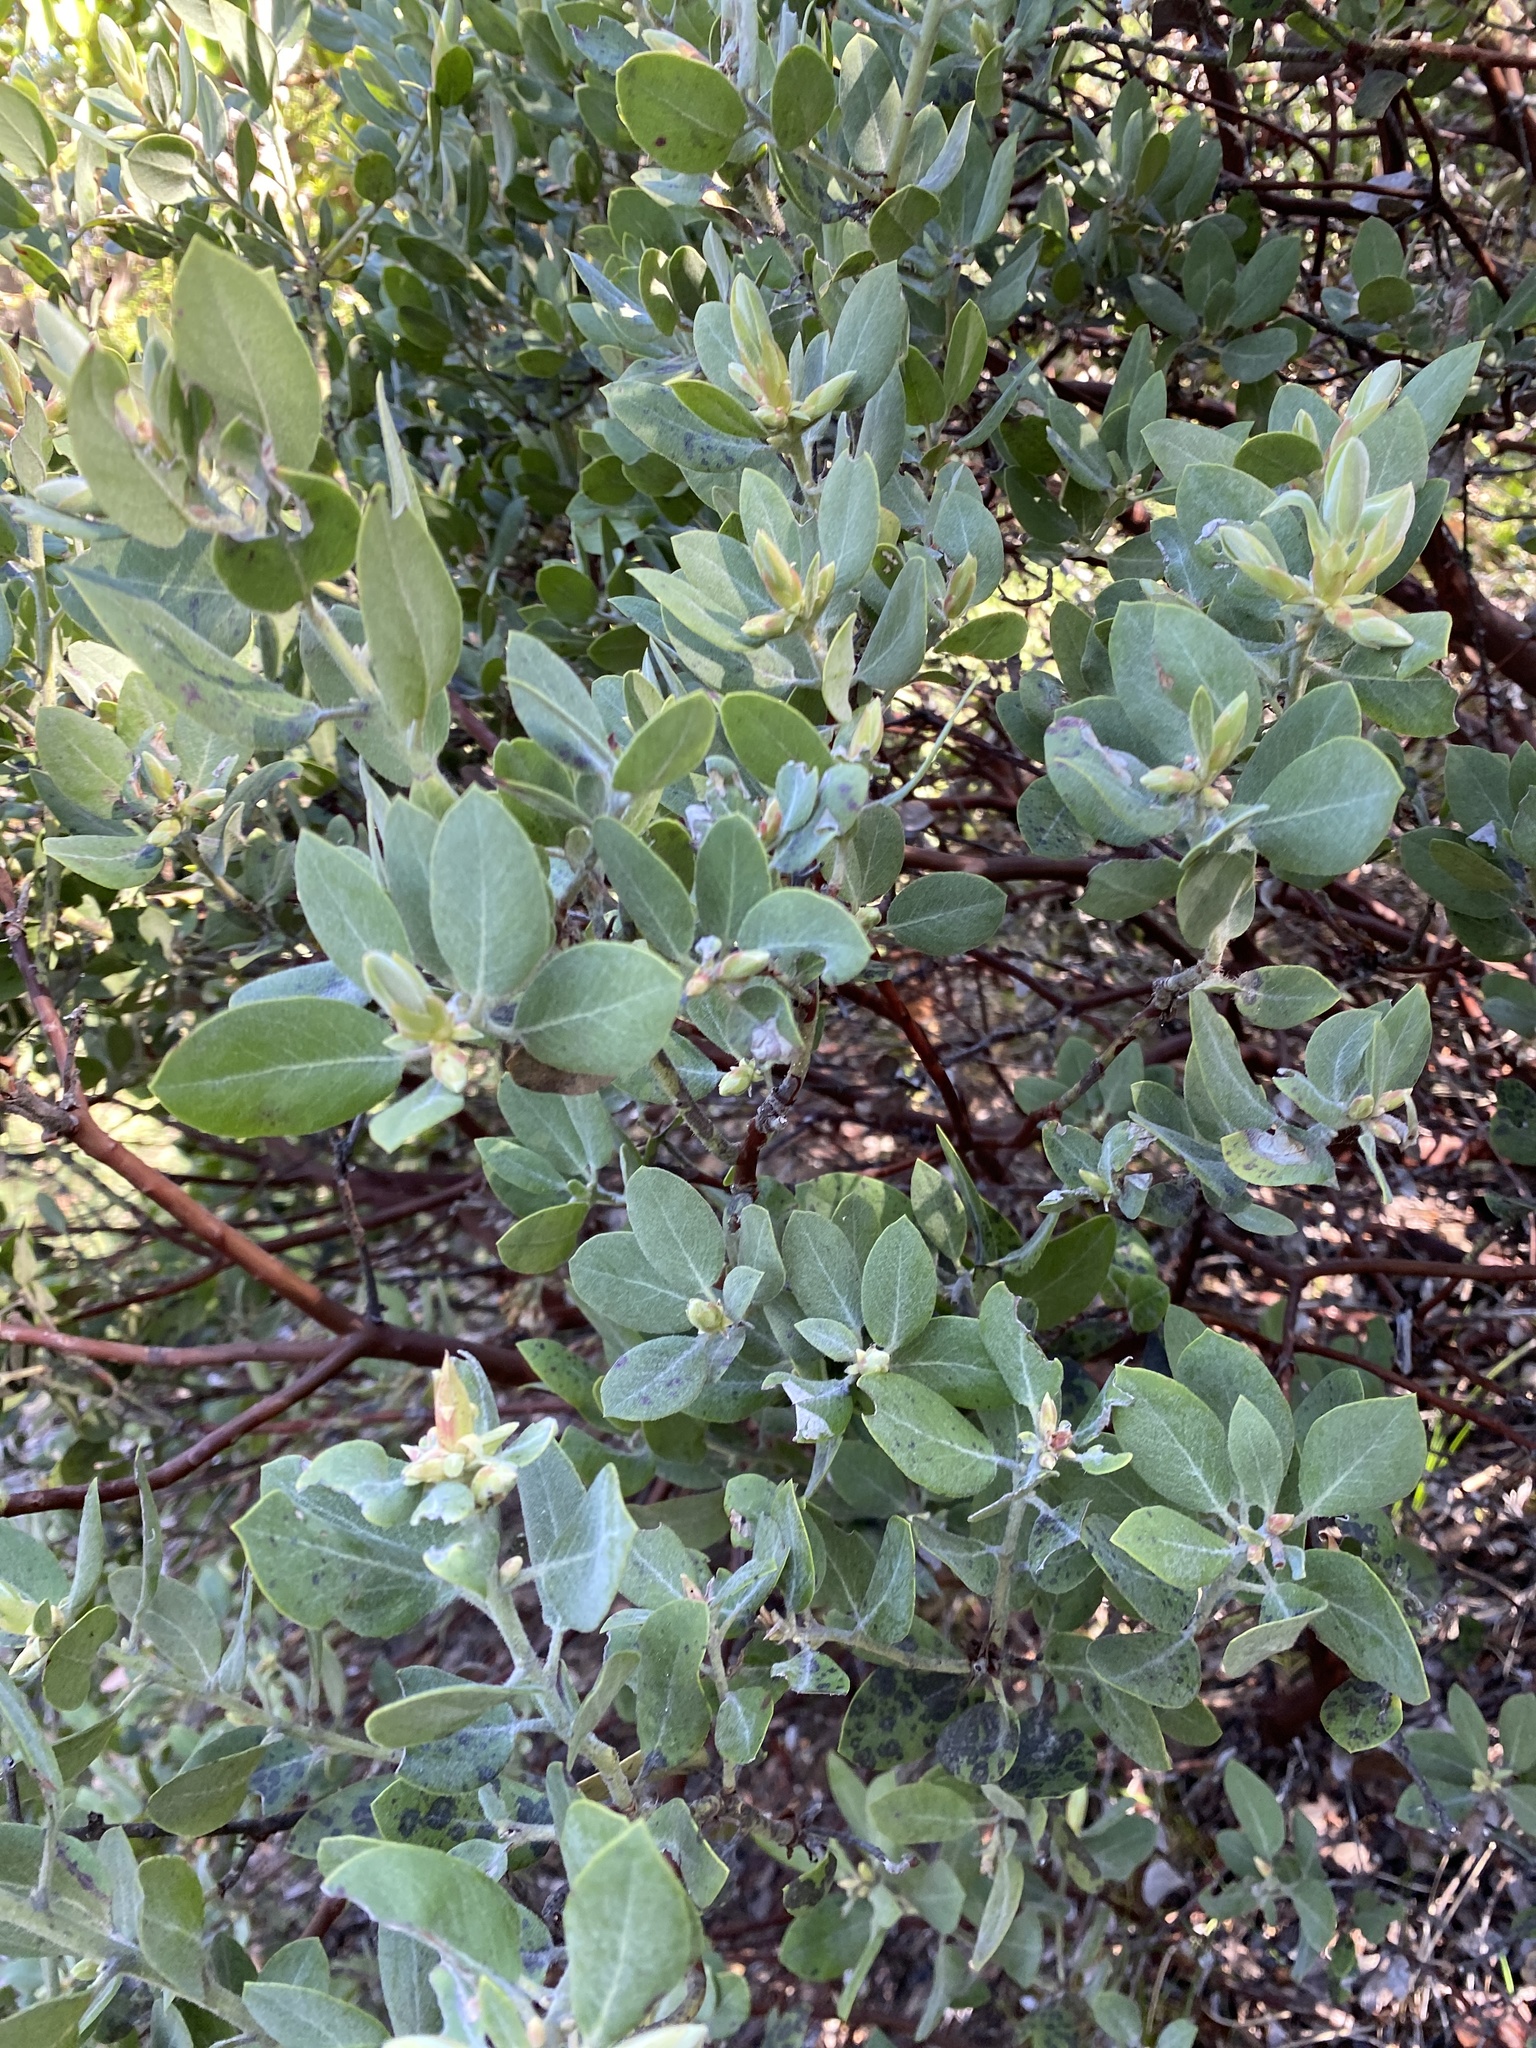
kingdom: Plantae
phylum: Tracheophyta
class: Magnoliopsida
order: Ericales
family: Ericaceae
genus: Arctostaphylos
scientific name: Arctostaphylos columbiana
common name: Bristly bearberry
